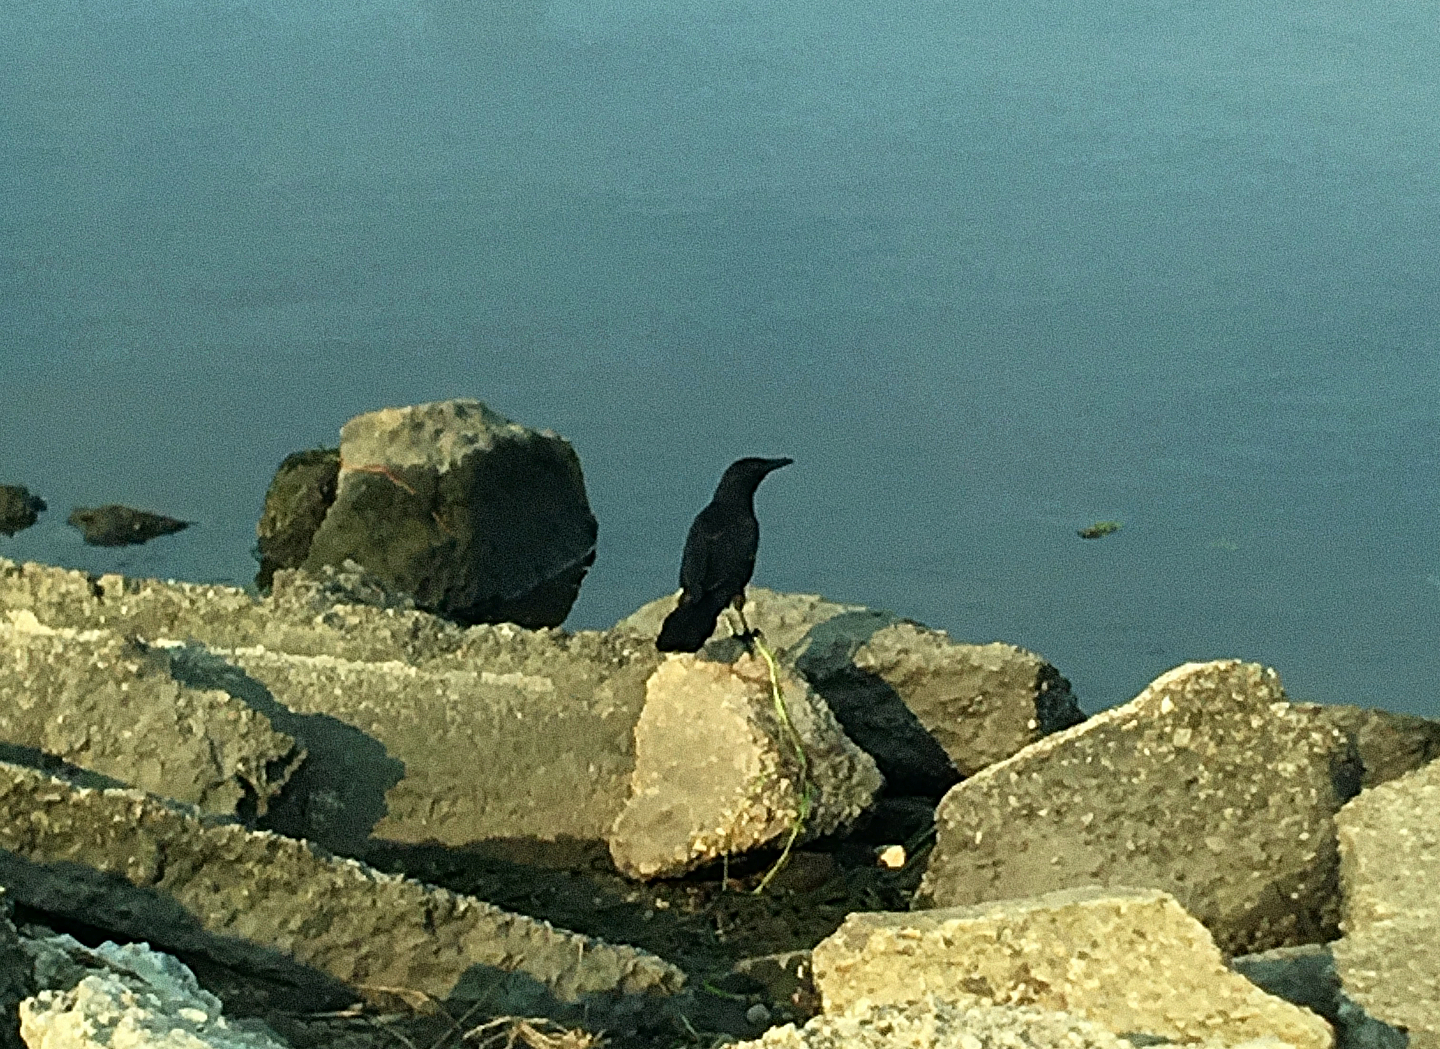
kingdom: Animalia
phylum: Chordata
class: Aves
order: Passeriformes
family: Icteridae
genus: Quiscalus
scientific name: Quiscalus major
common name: Boat-tailed grackle
